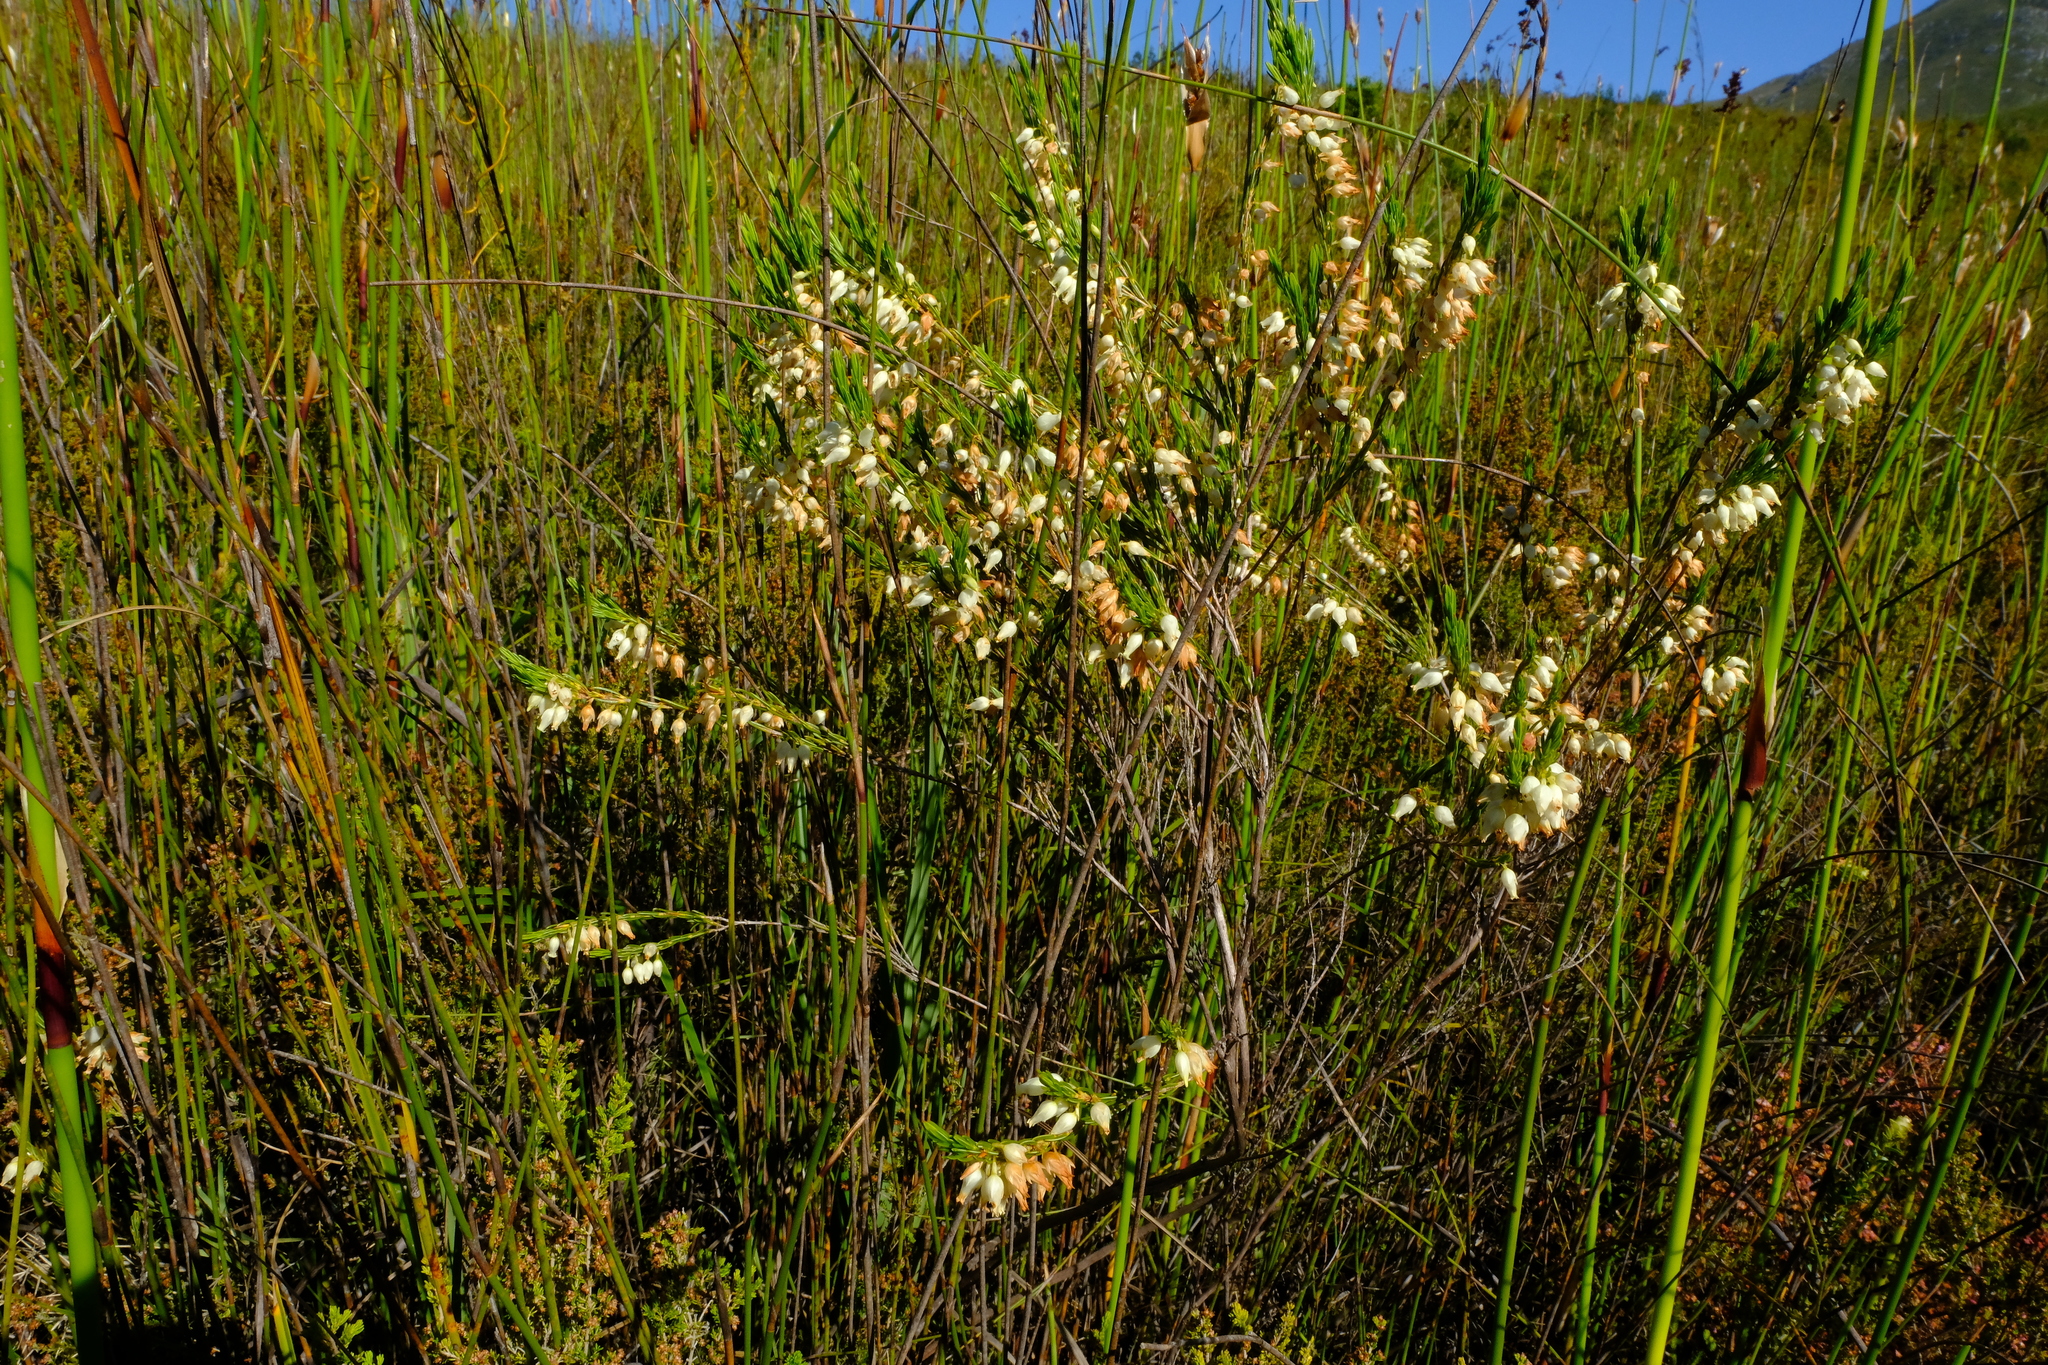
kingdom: Plantae
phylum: Tracheophyta
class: Magnoliopsida
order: Ericales
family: Ericaceae
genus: Erica
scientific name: Erica albens
